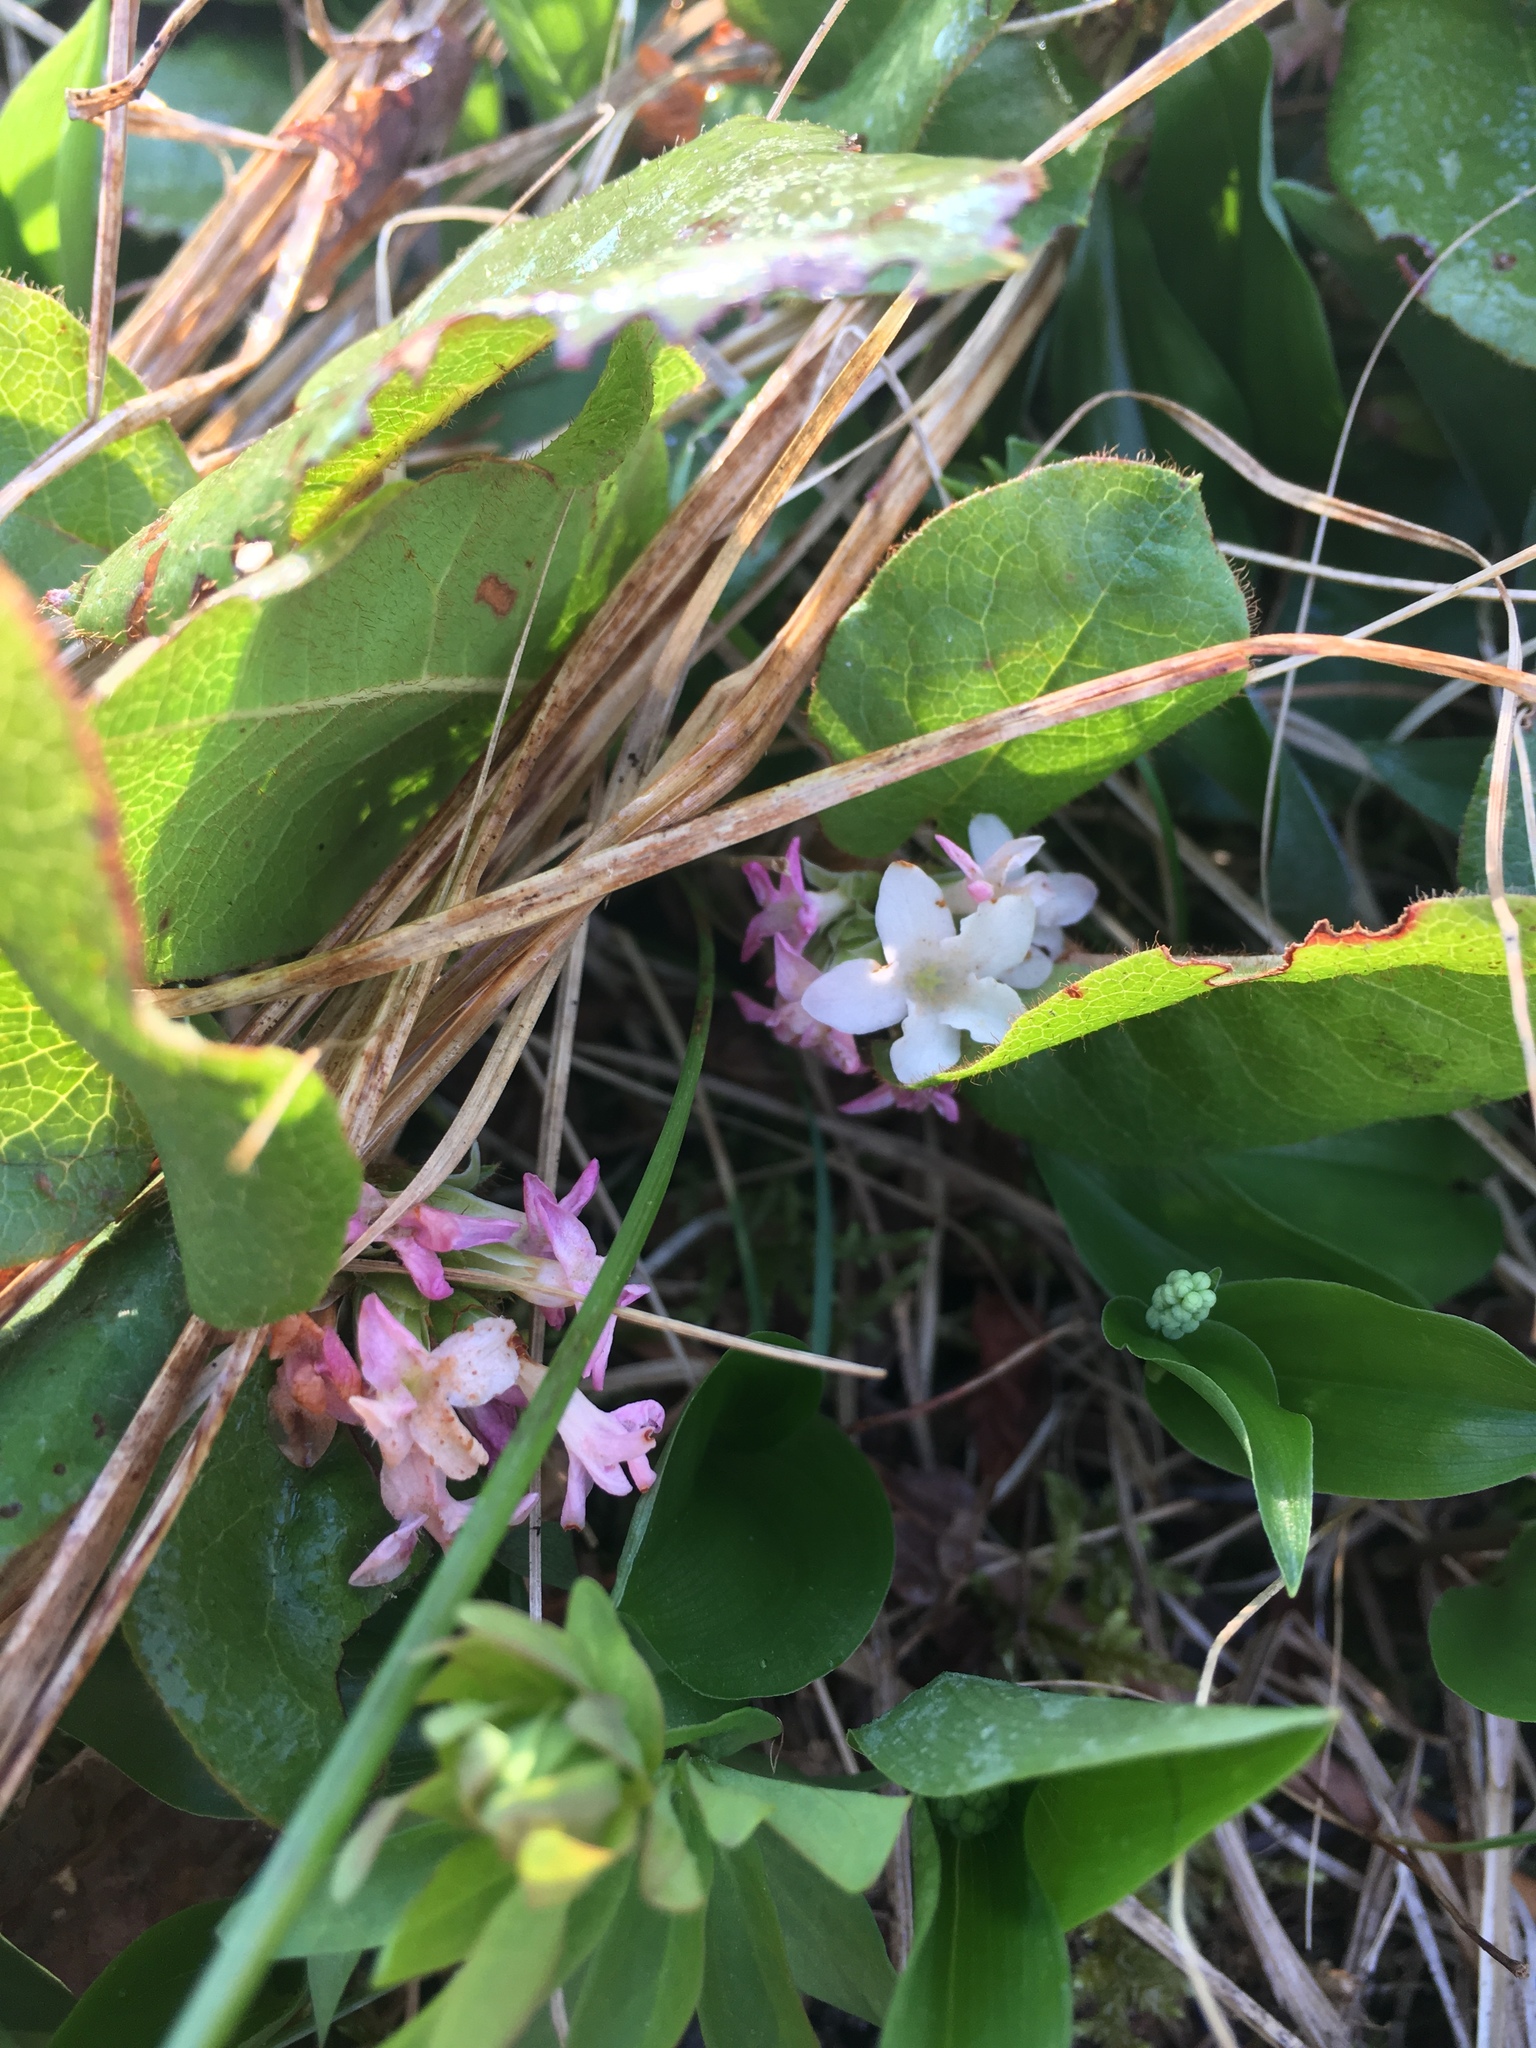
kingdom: Plantae
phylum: Tracheophyta
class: Magnoliopsida
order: Ericales
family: Ericaceae
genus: Epigaea
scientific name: Epigaea repens
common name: Gravelroot
